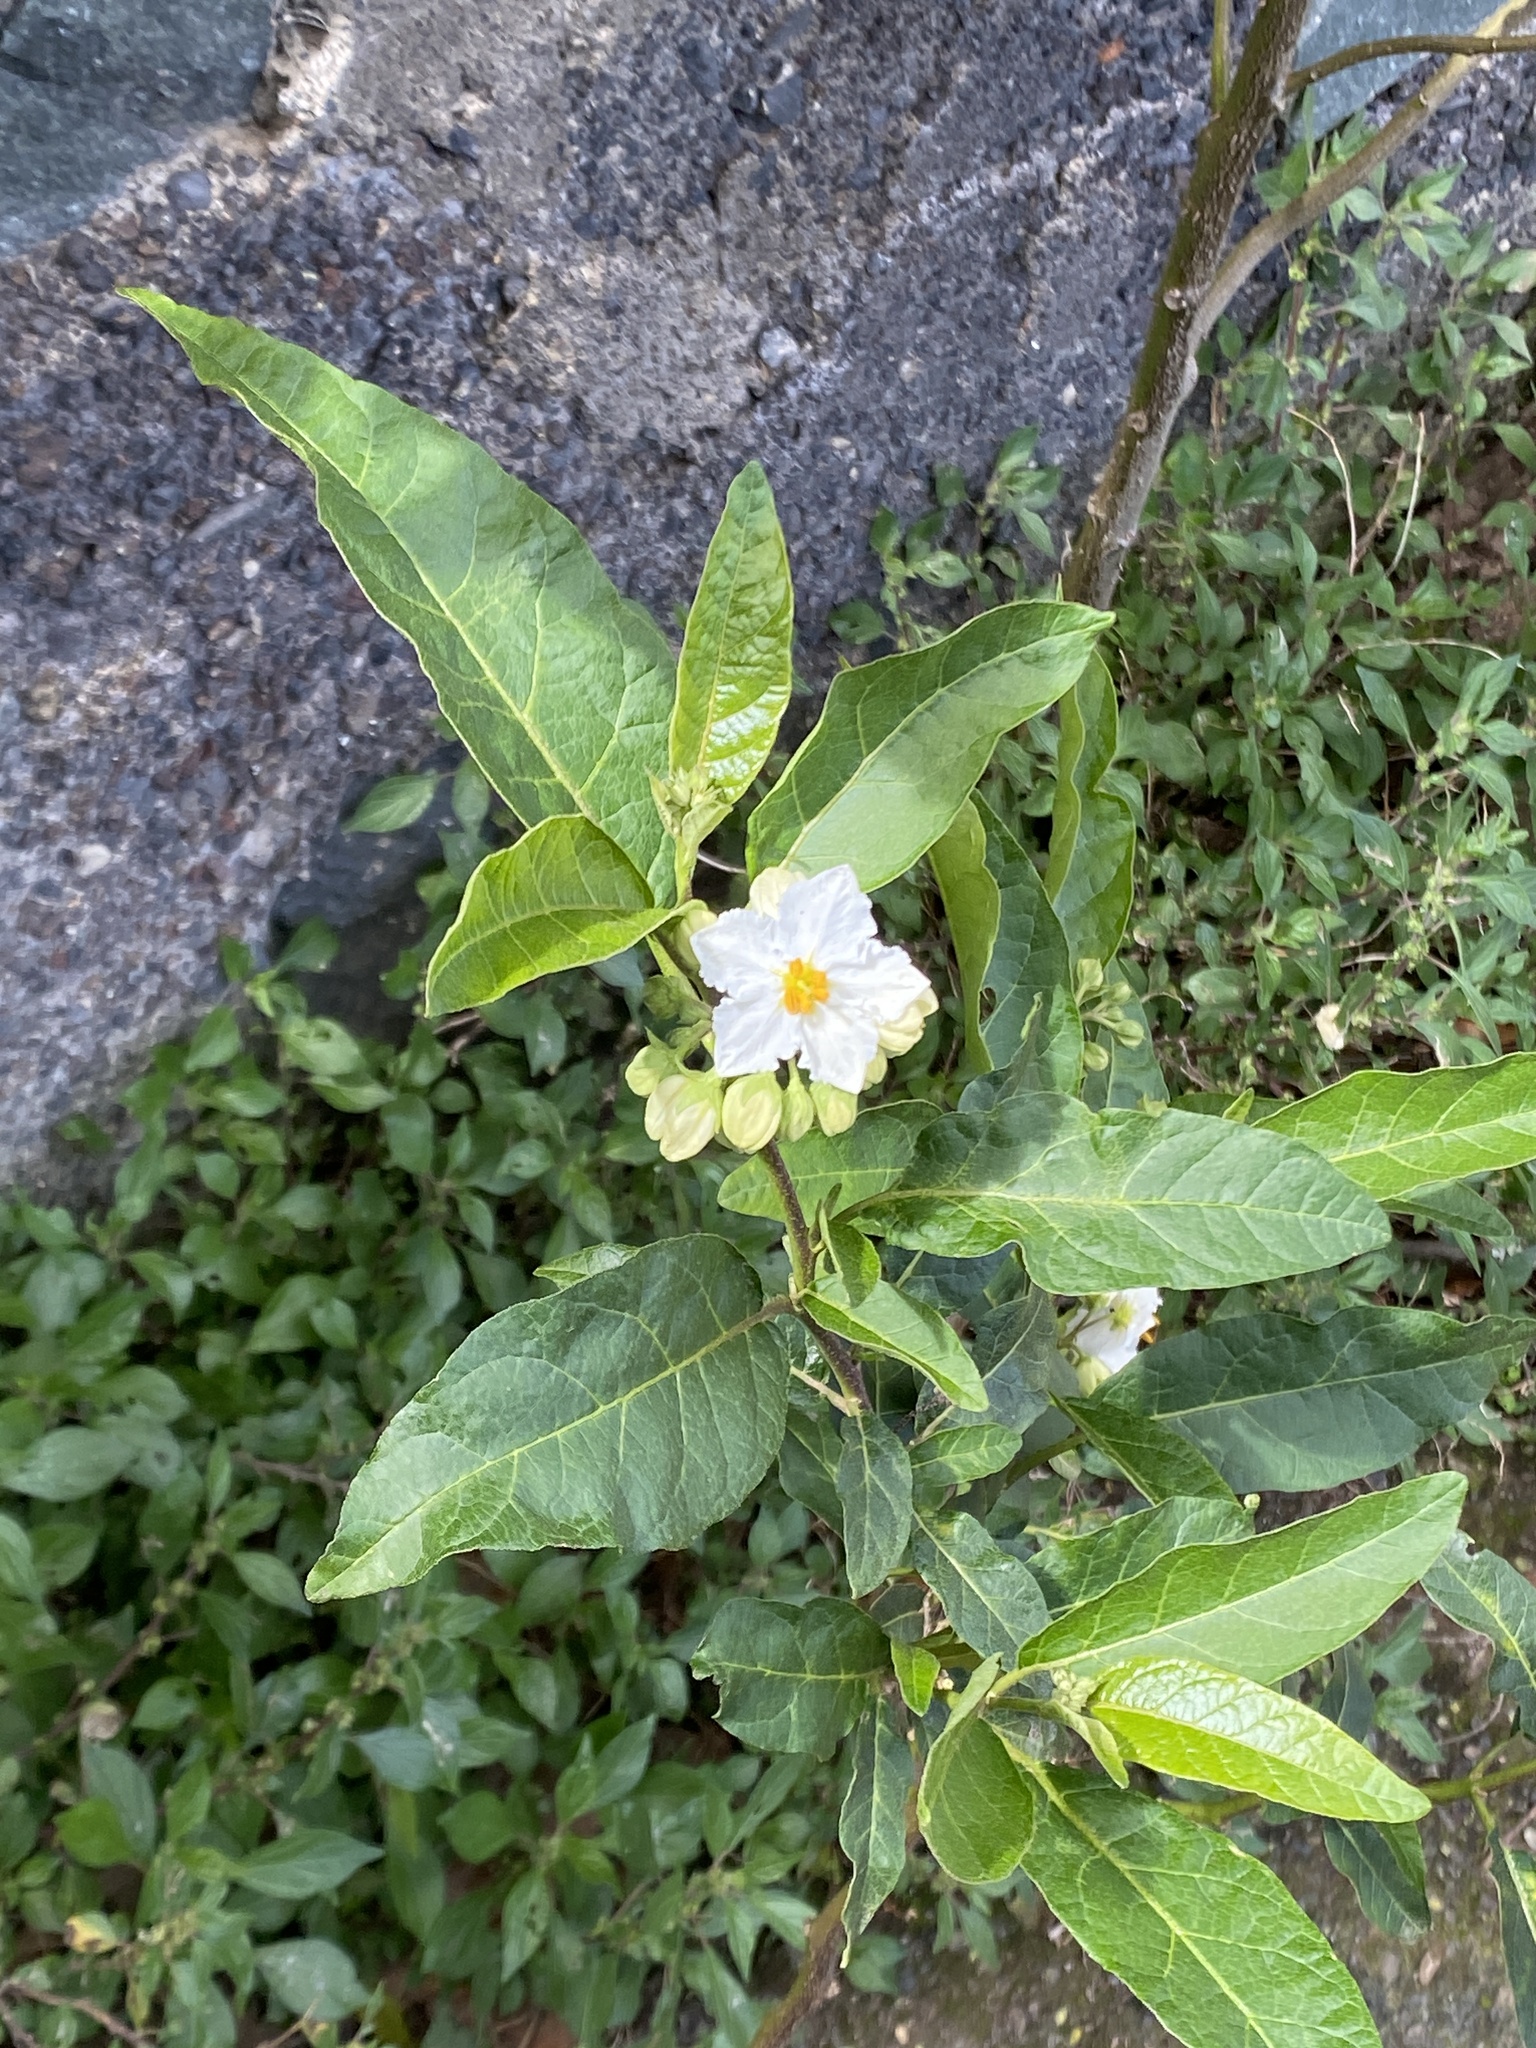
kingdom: Plantae
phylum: Tracheophyta
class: Magnoliopsida
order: Solanales
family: Solanaceae
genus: Solanum
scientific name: Solanum bonariense
